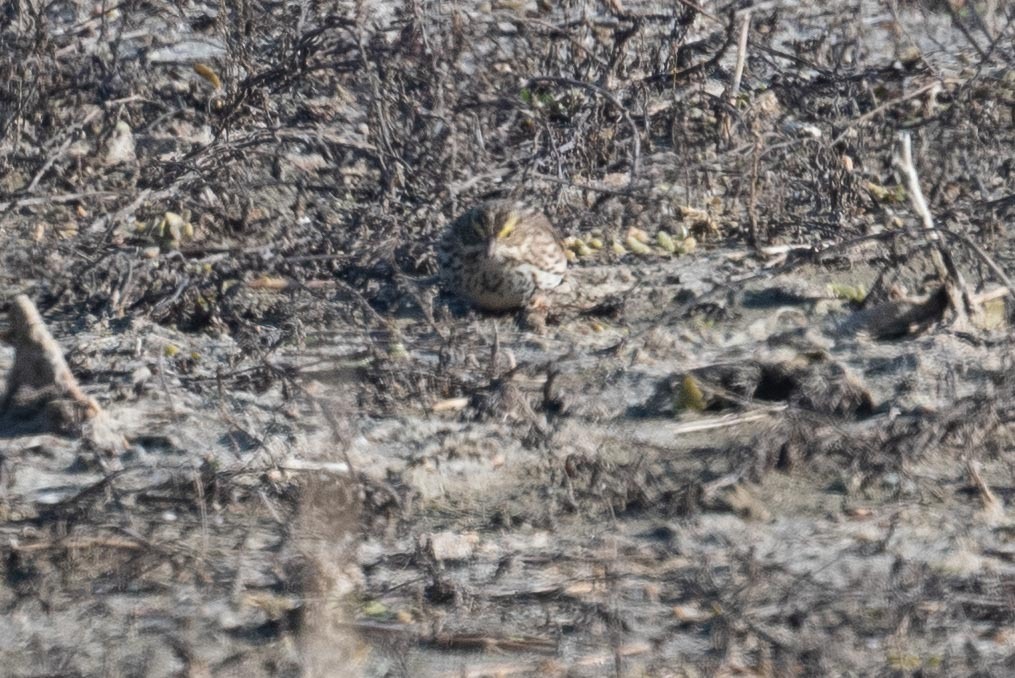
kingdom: Animalia
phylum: Chordata
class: Aves
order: Passeriformes
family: Passerellidae
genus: Passerculus
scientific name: Passerculus sandwichensis
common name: Savannah sparrow
